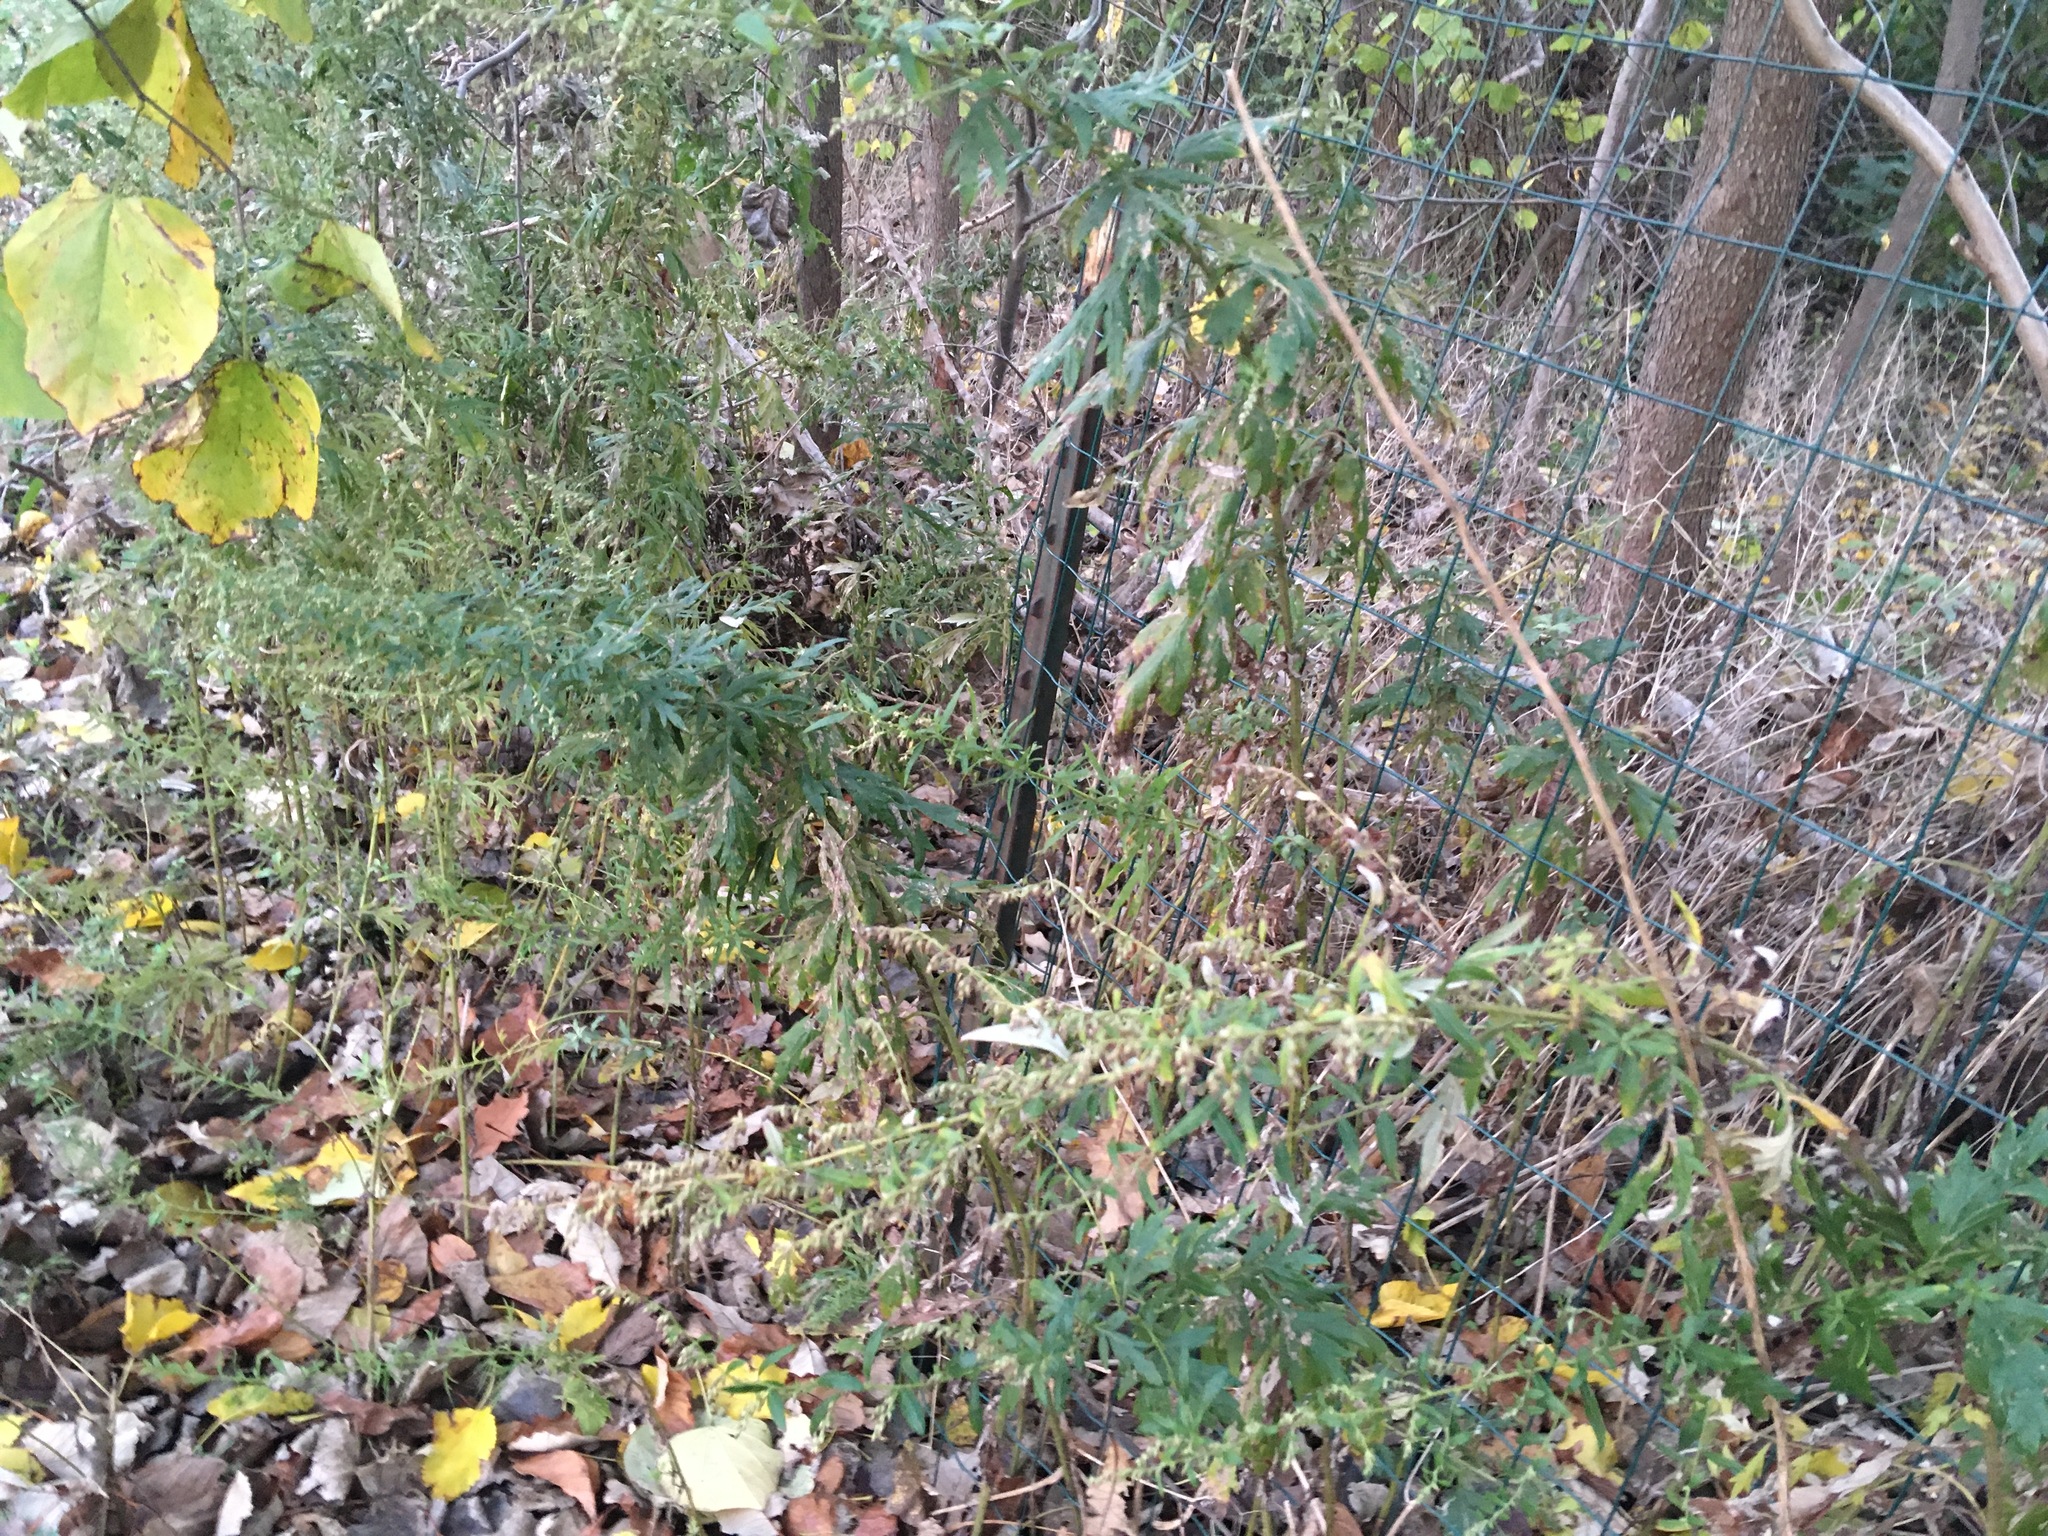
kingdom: Plantae
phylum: Tracheophyta
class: Magnoliopsida
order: Asterales
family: Asteraceae
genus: Artemisia
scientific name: Artemisia vulgaris
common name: Mugwort
